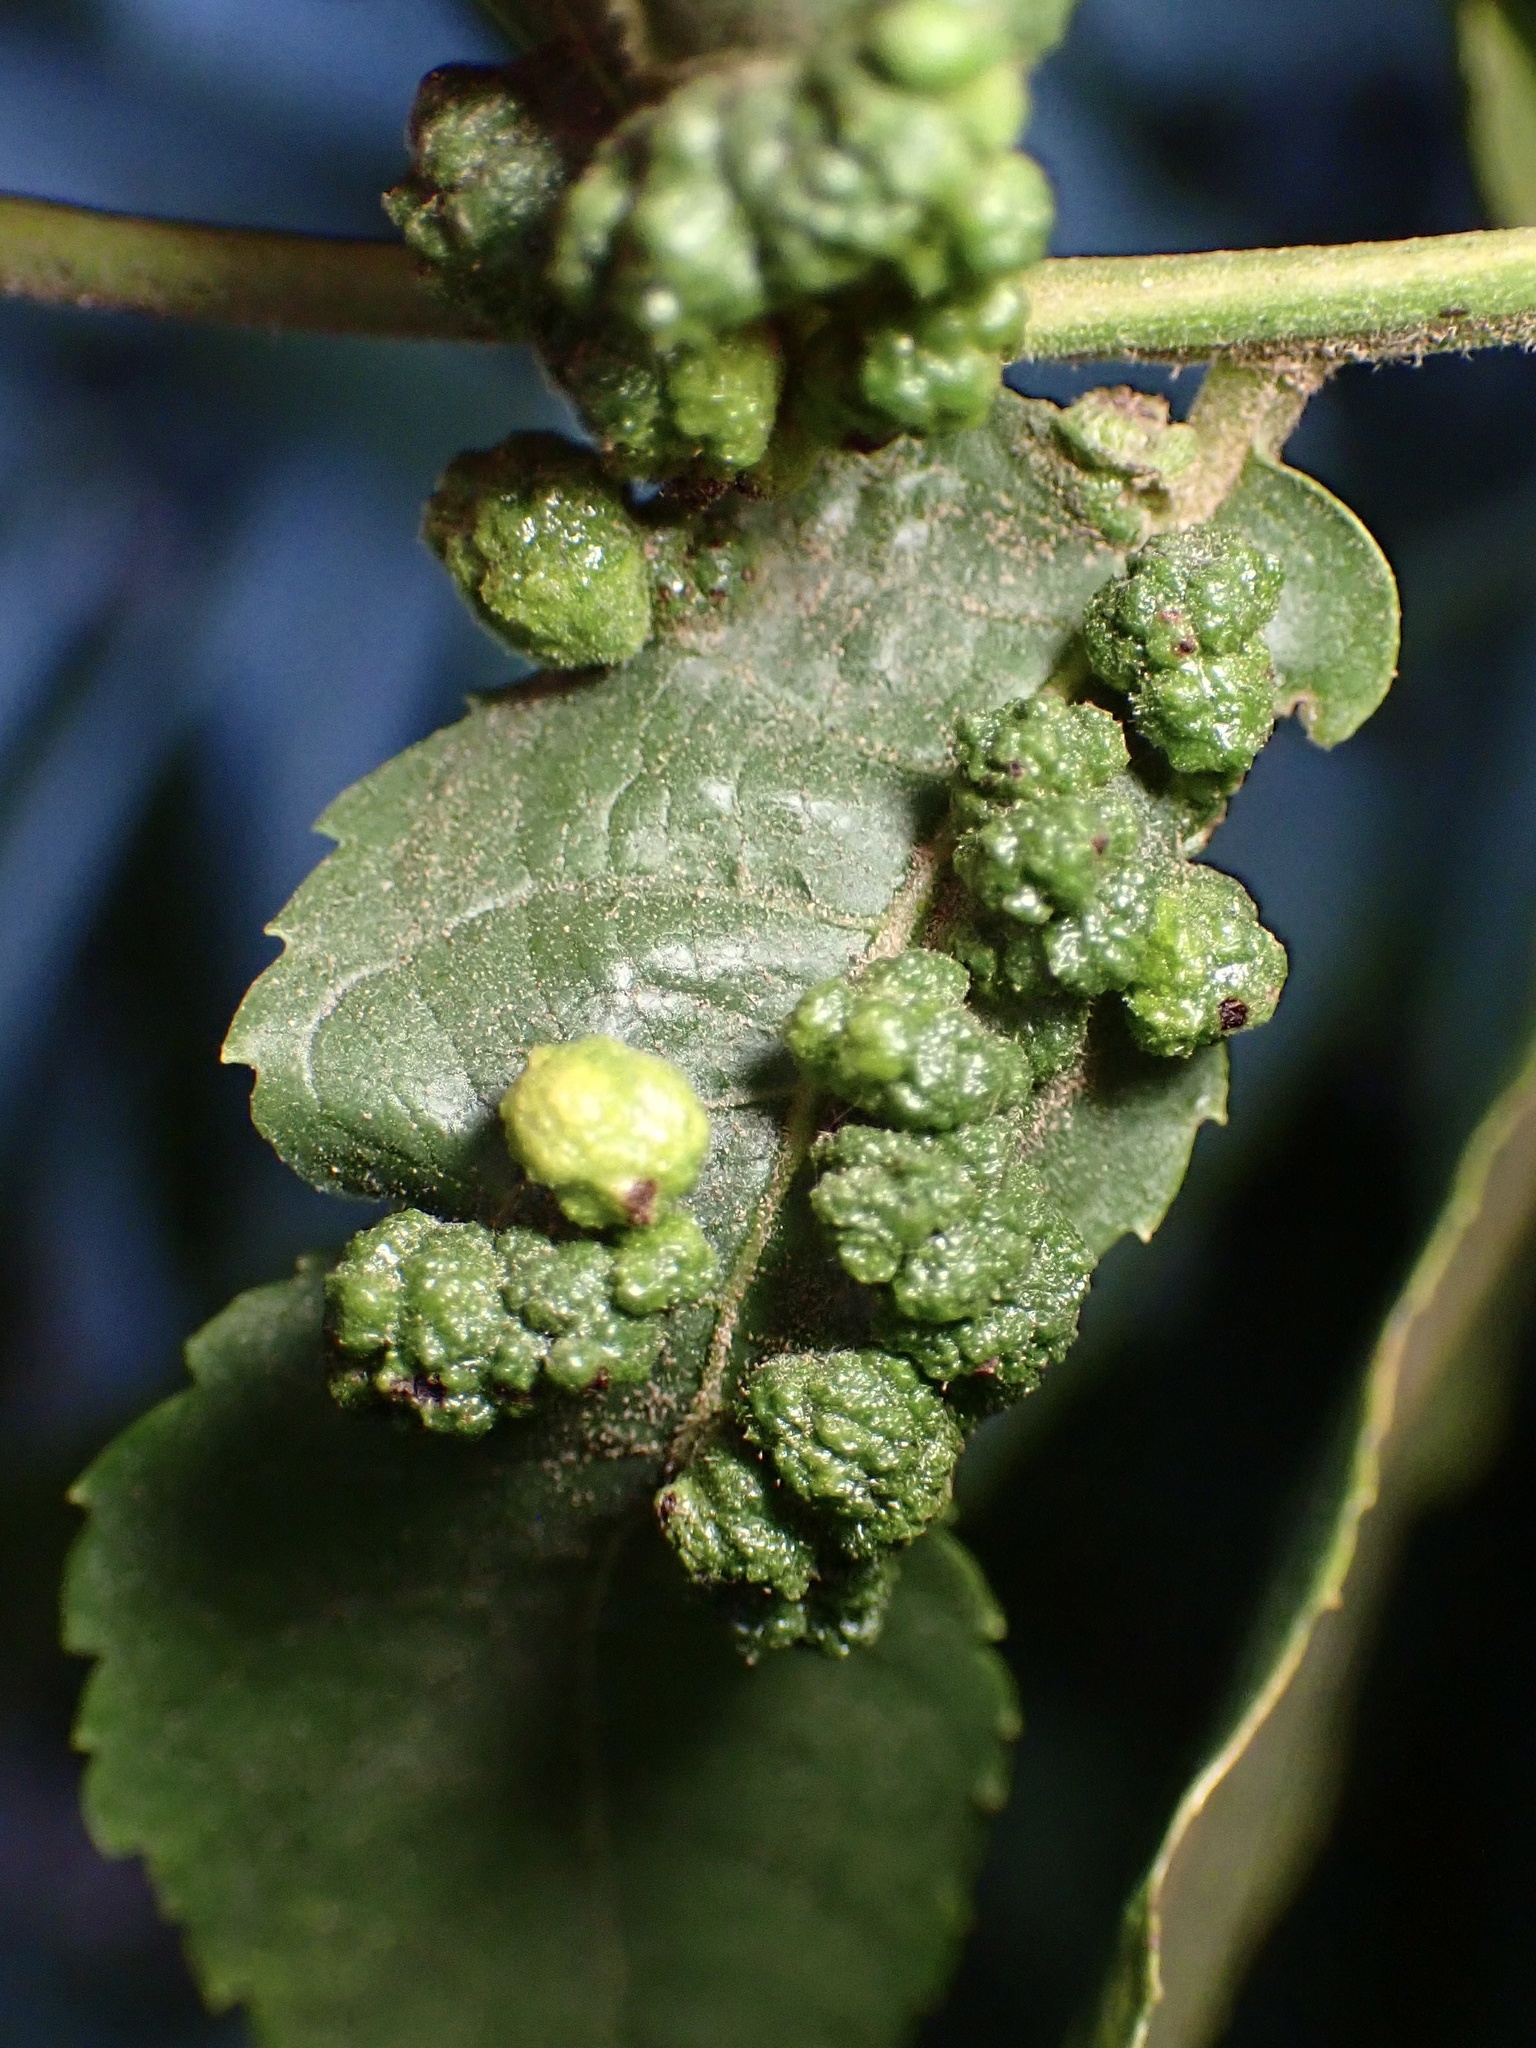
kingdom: Animalia
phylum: Arthropoda
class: Arachnida
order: Trombidiformes
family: Eriophyidae
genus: Aceria
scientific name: Aceria brachytarsus
